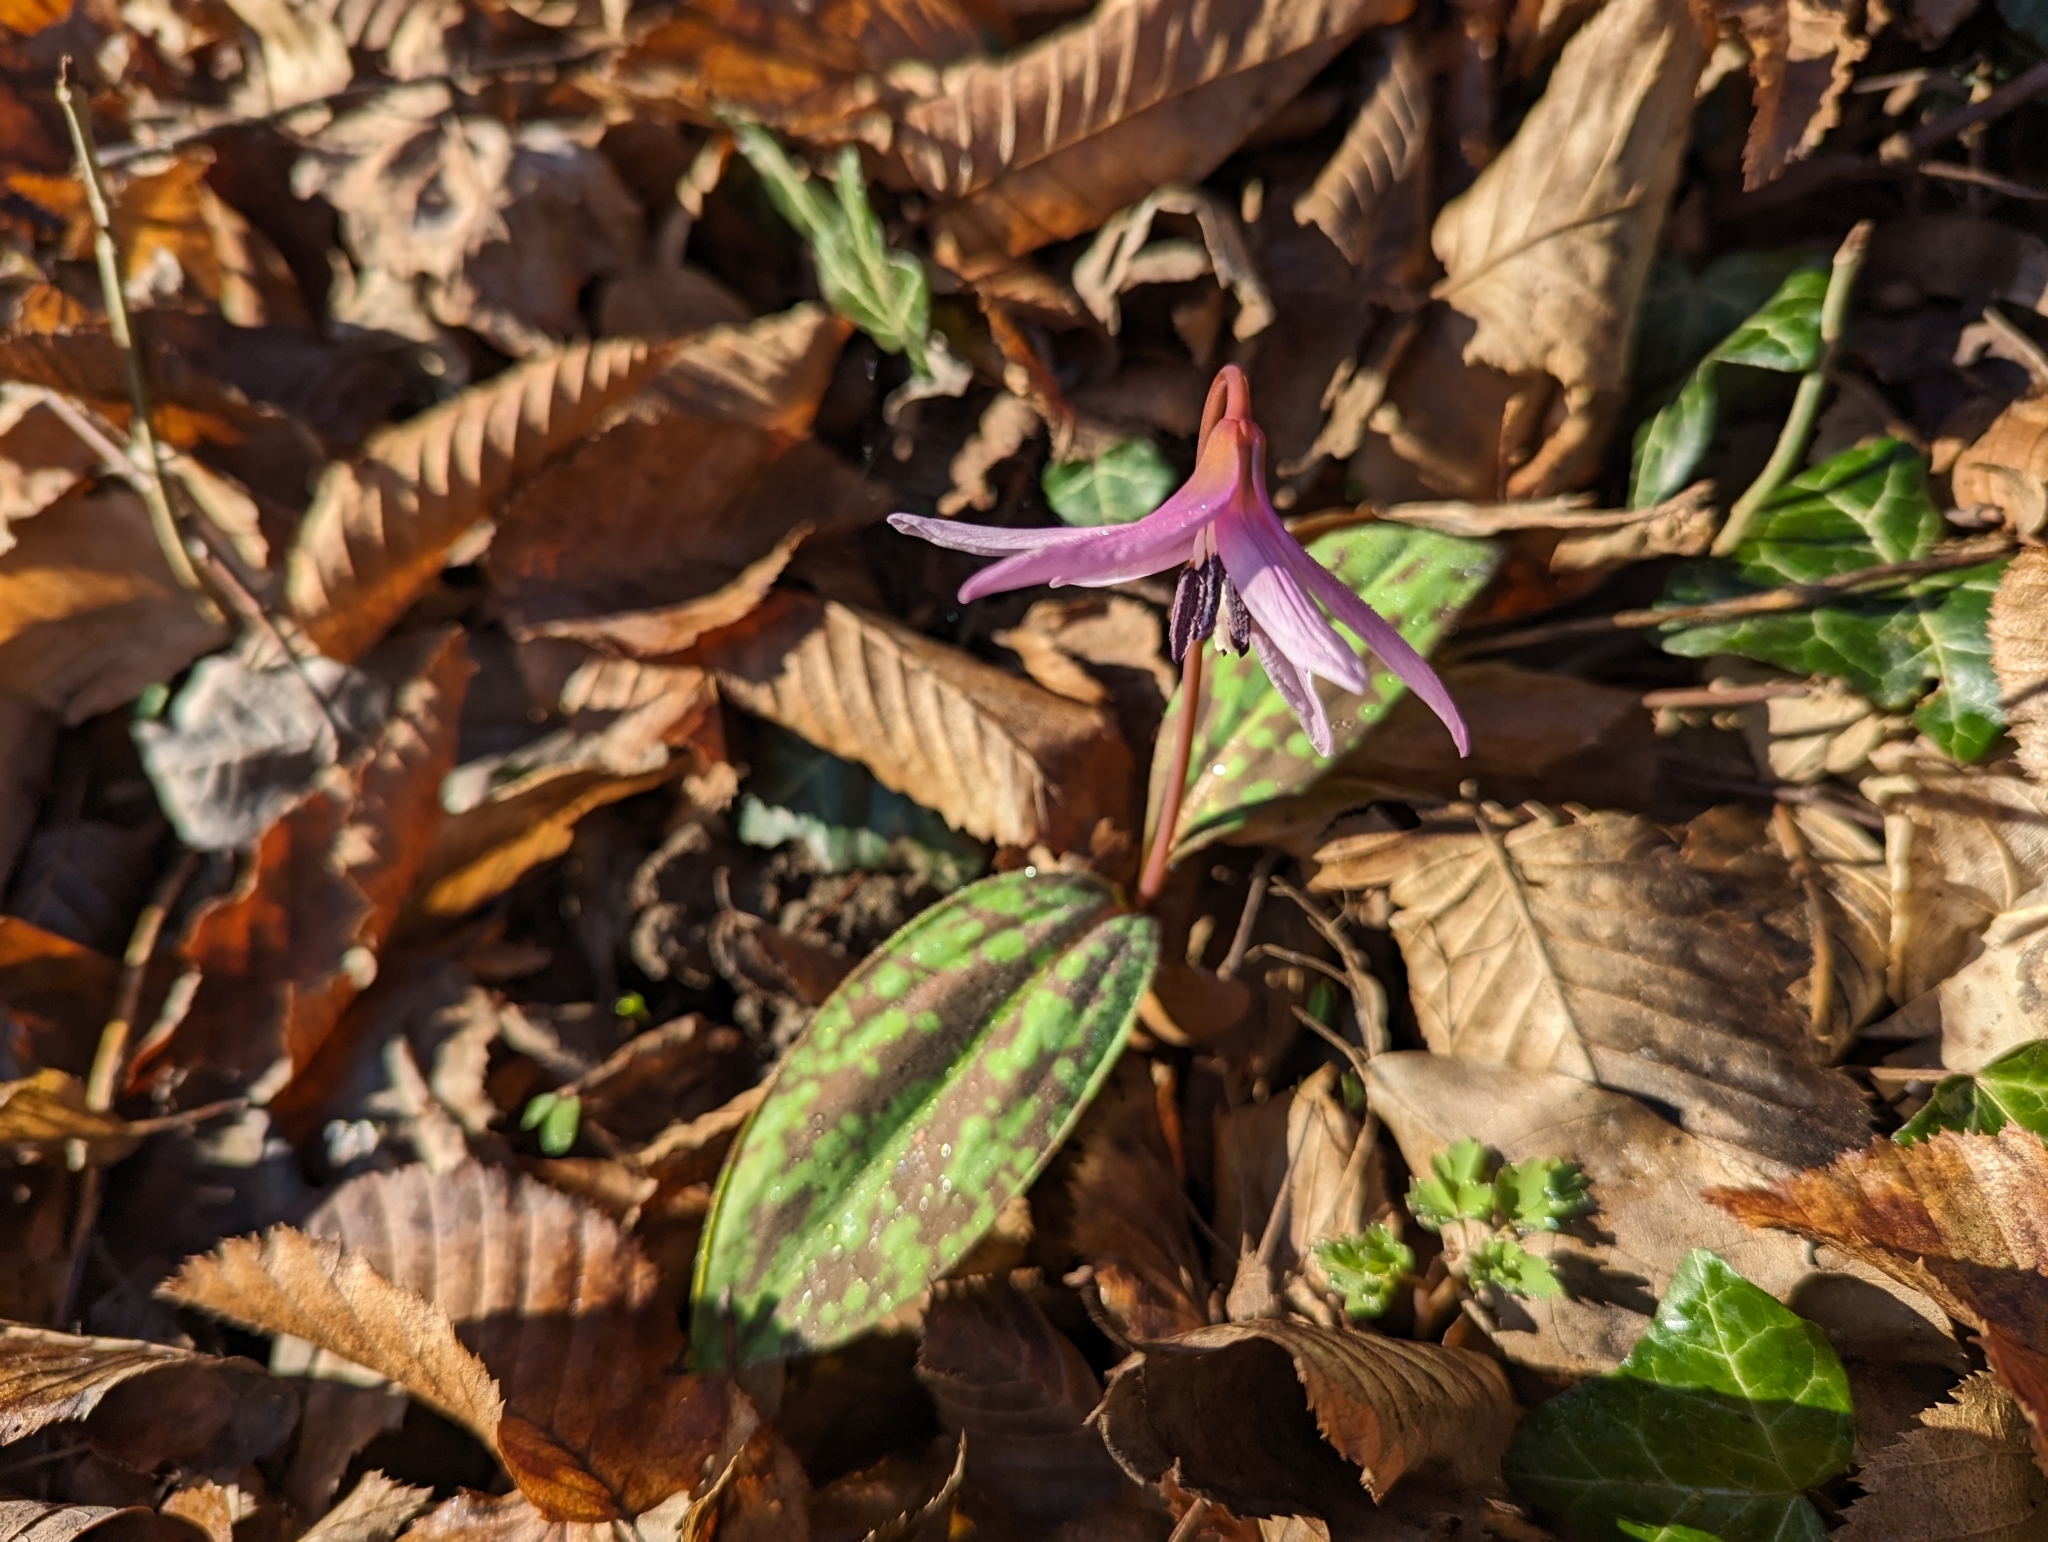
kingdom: Plantae
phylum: Tracheophyta
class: Liliopsida
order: Liliales
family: Liliaceae
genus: Erythronium
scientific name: Erythronium dens-canis
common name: Dog's-tooth-violet
